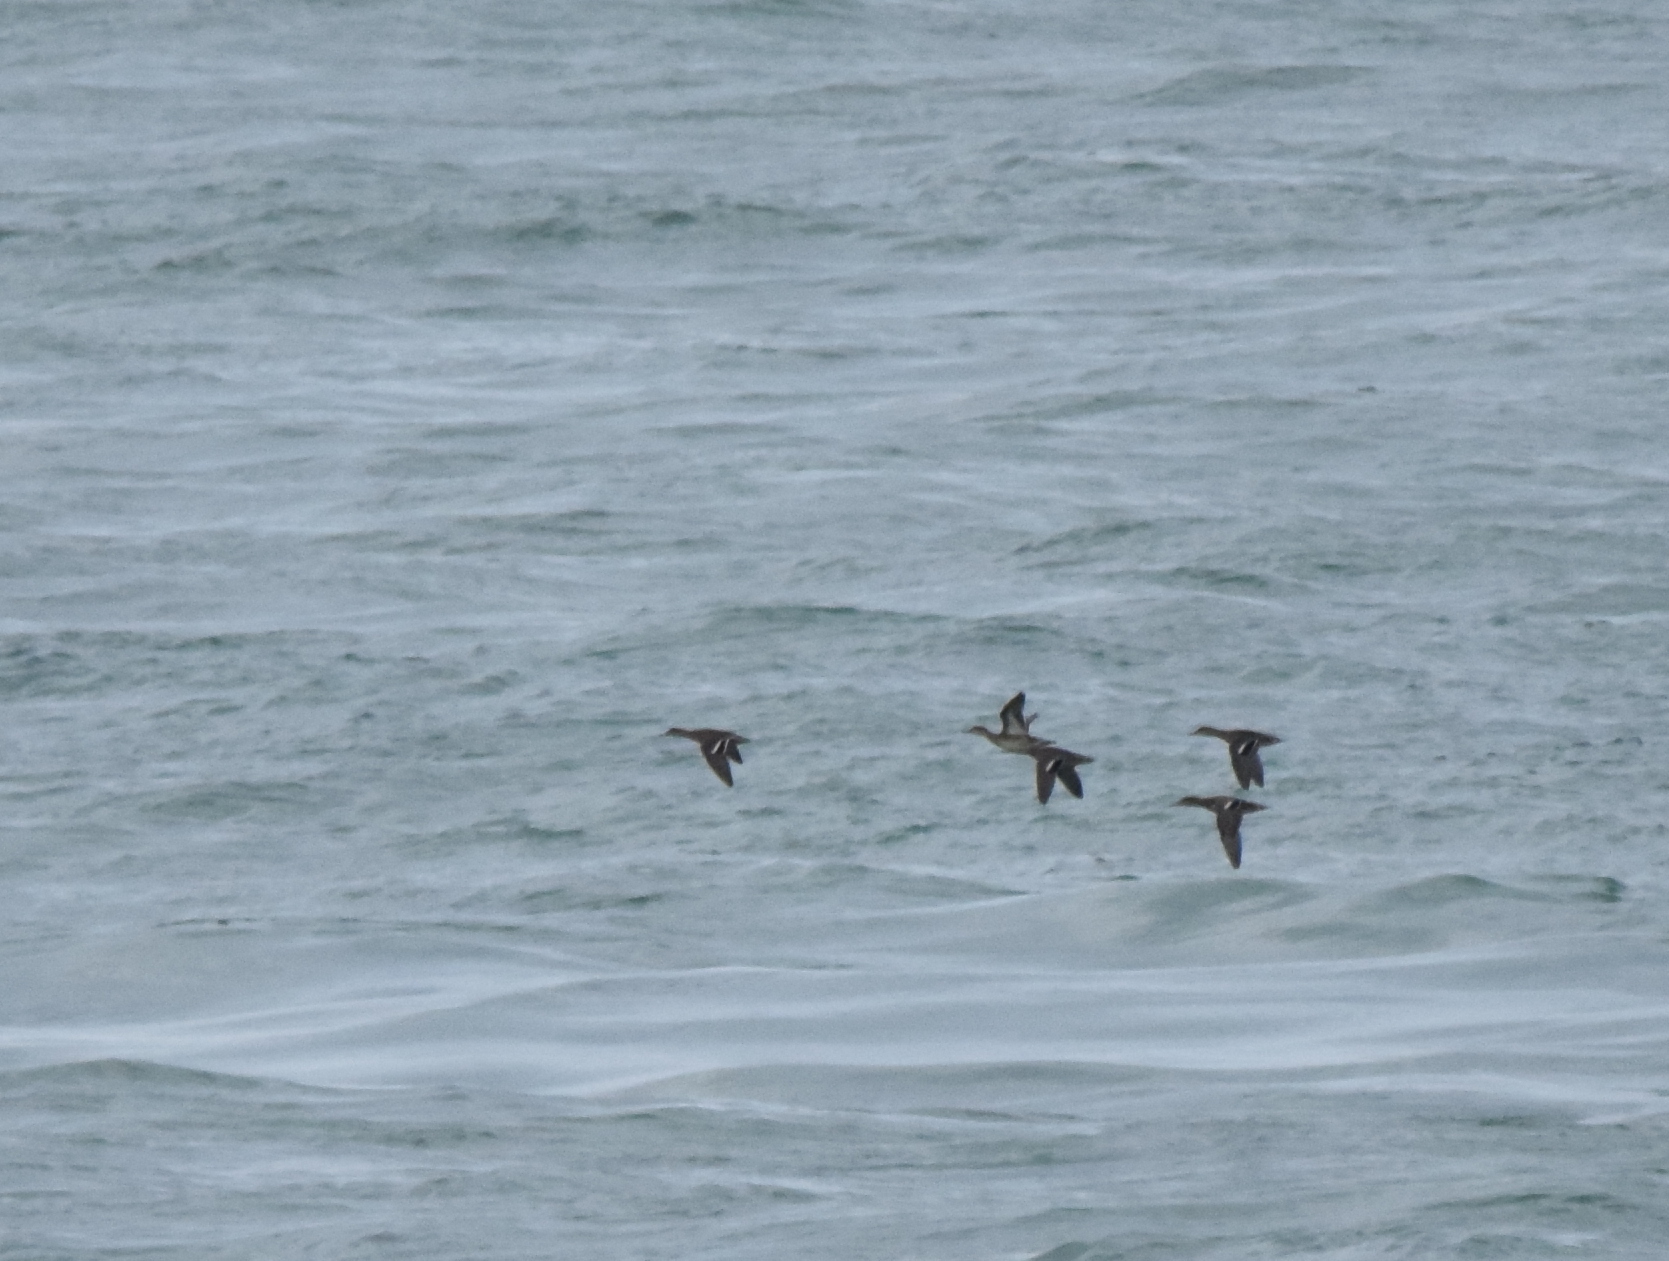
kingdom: Animalia
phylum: Chordata
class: Aves
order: Anseriformes
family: Anatidae
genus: Anas
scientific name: Anas crecca
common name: Eurasian teal
